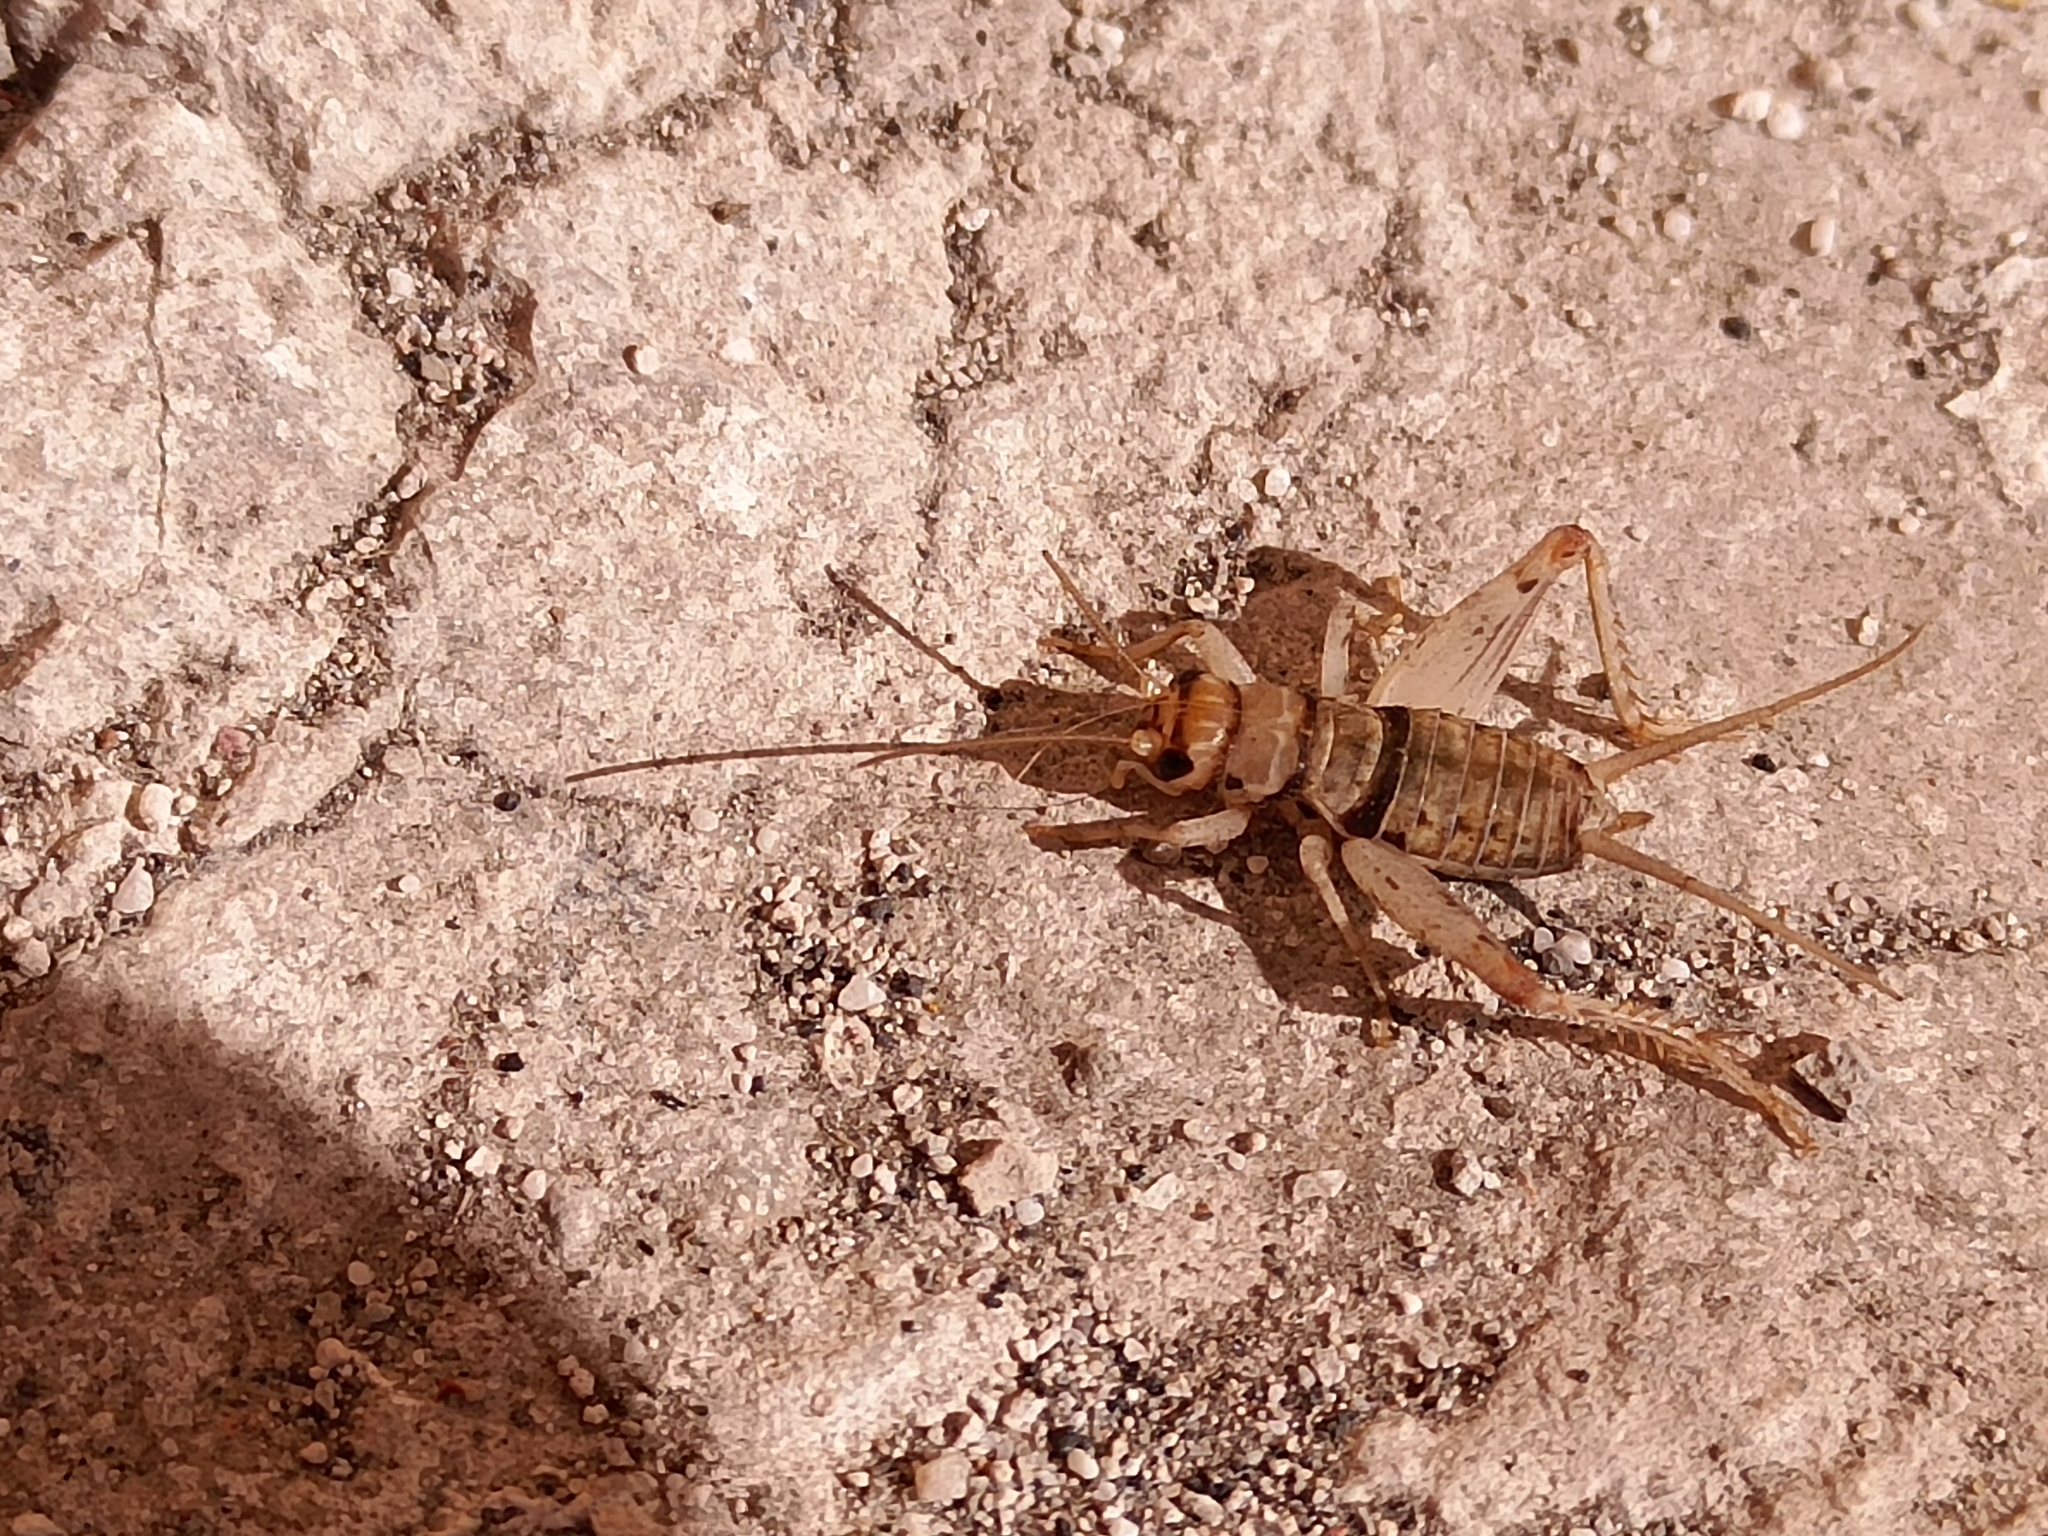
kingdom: Animalia
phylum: Arthropoda
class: Insecta
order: Orthoptera
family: Gryllidae
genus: Gryllodes
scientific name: Gryllodes sigillatus
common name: Tropical house cricket
